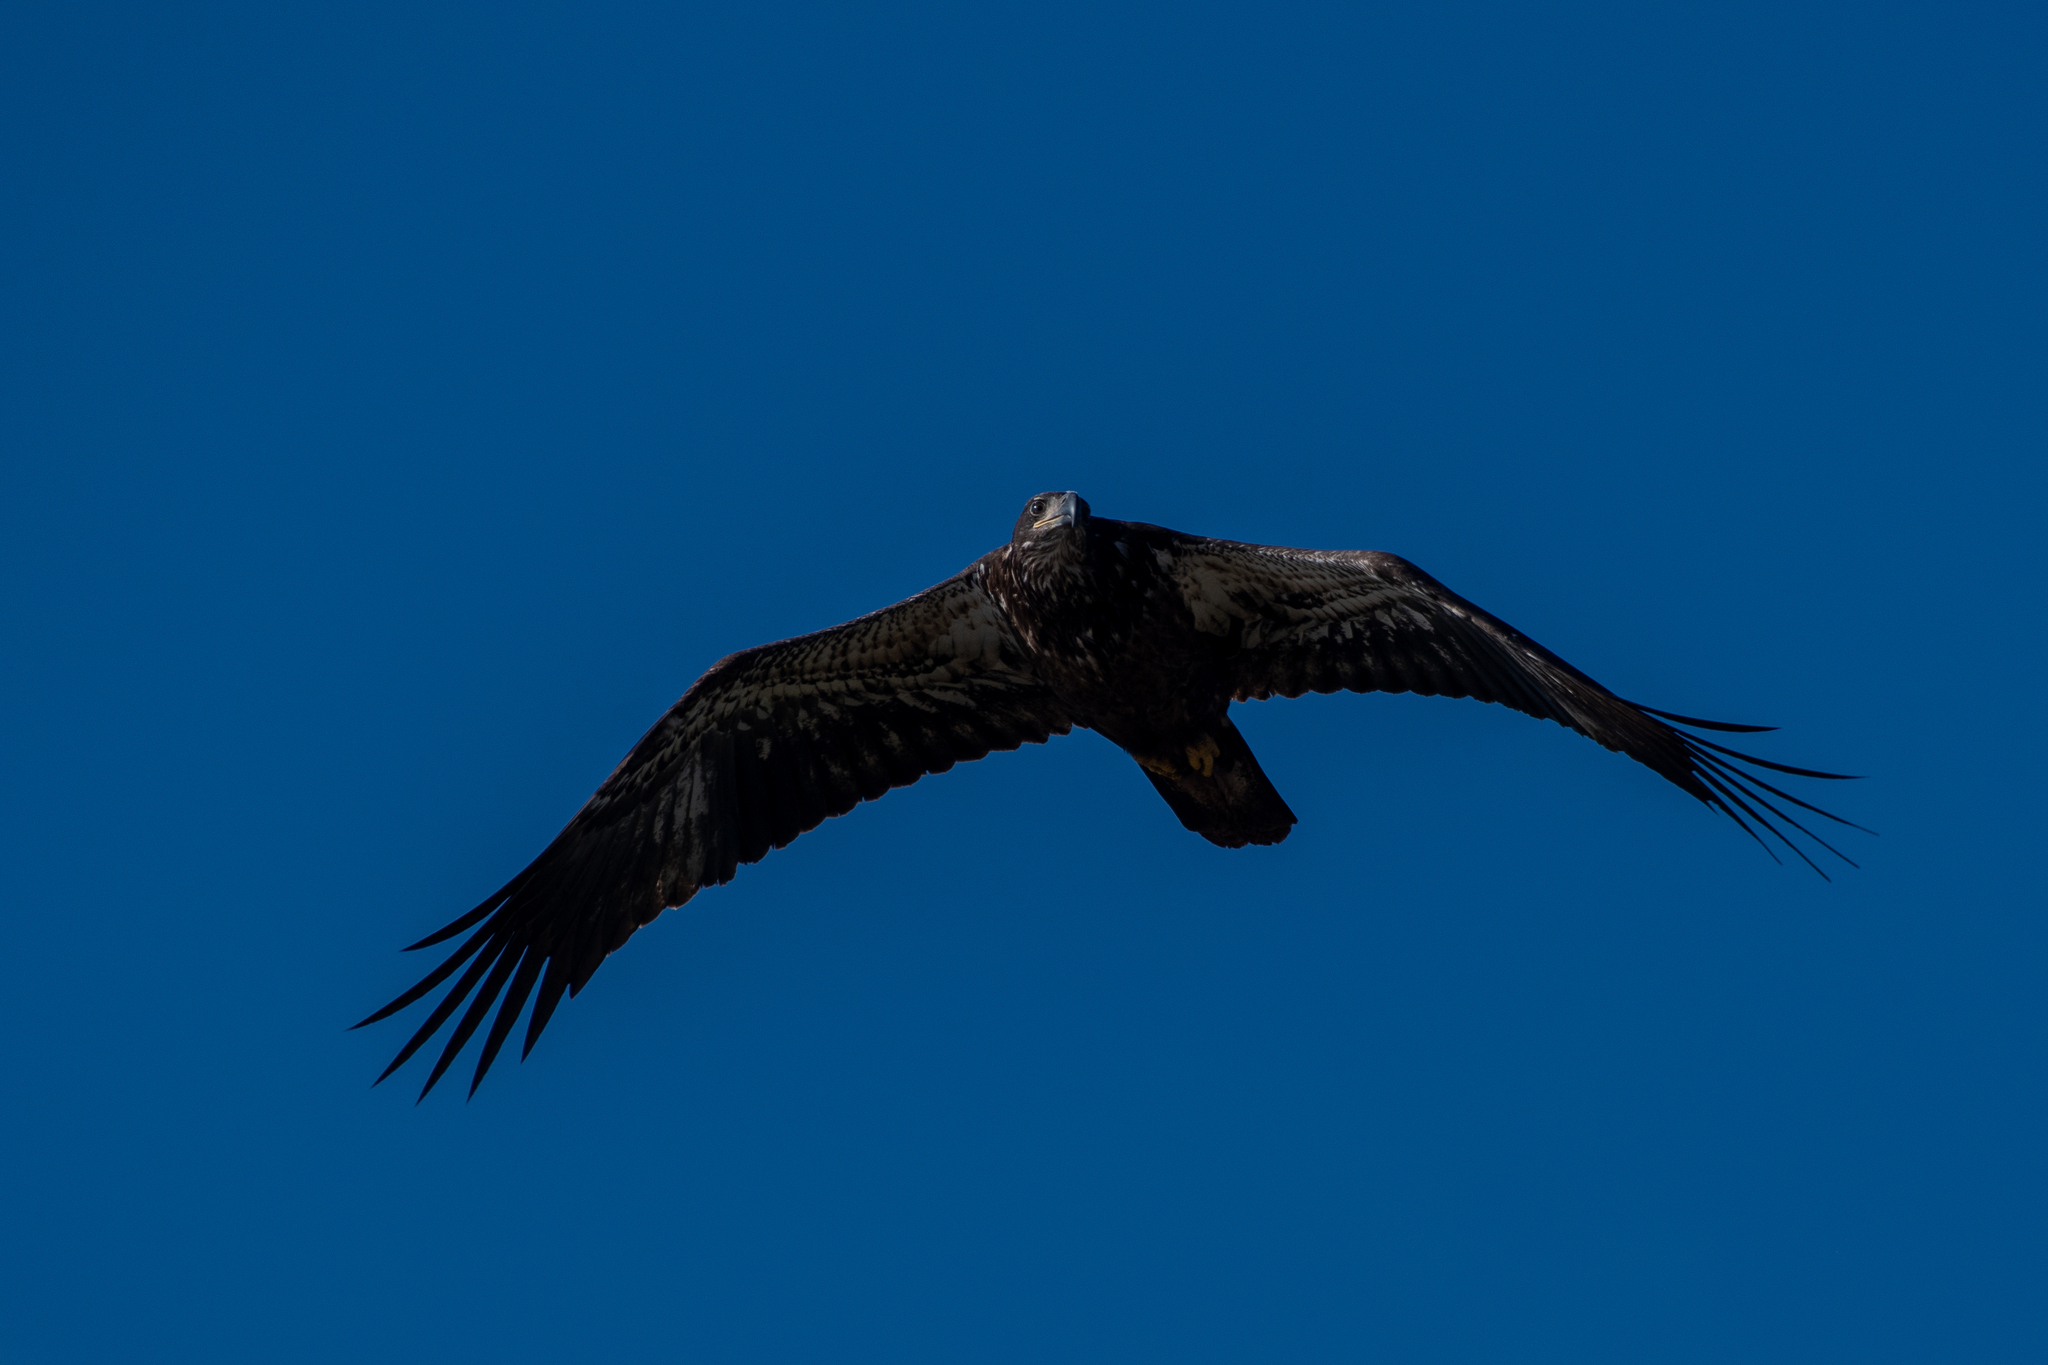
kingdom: Animalia
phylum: Chordata
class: Aves
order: Accipitriformes
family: Accipitridae
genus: Haliaeetus
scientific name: Haliaeetus leucocephalus
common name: Bald eagle
